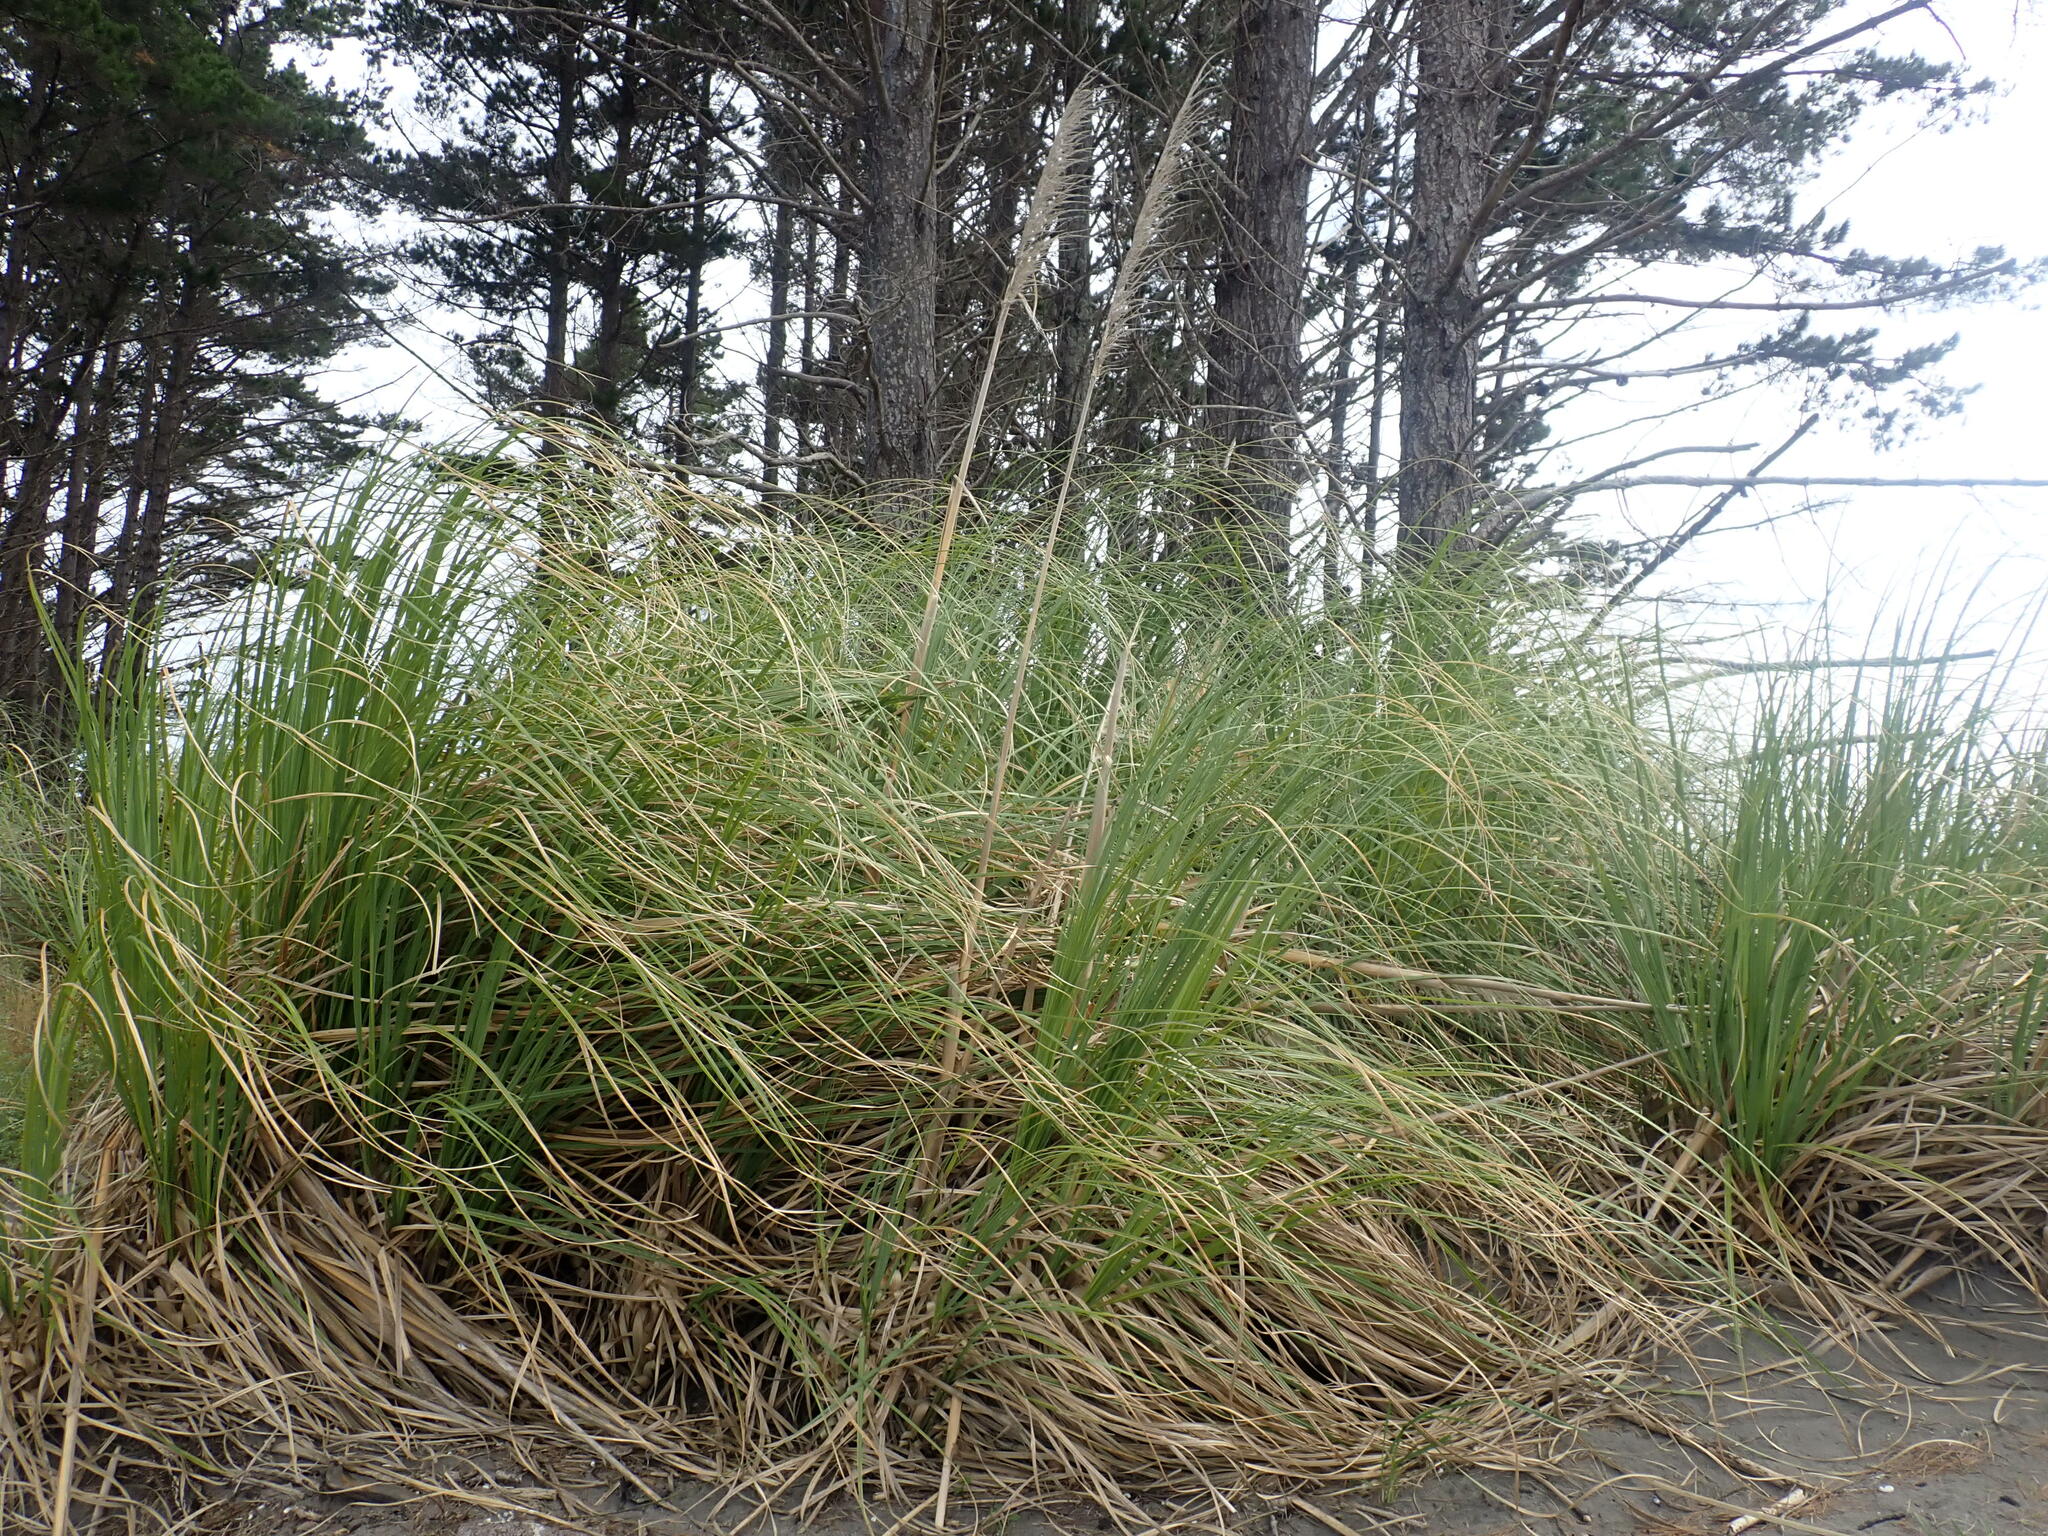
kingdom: Plantae
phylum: Tracheophyta
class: Liliopsida
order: Poales
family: Poaceae
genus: Cortaderia
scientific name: Cortaderia selloana
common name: Uruguayan pampas grass
